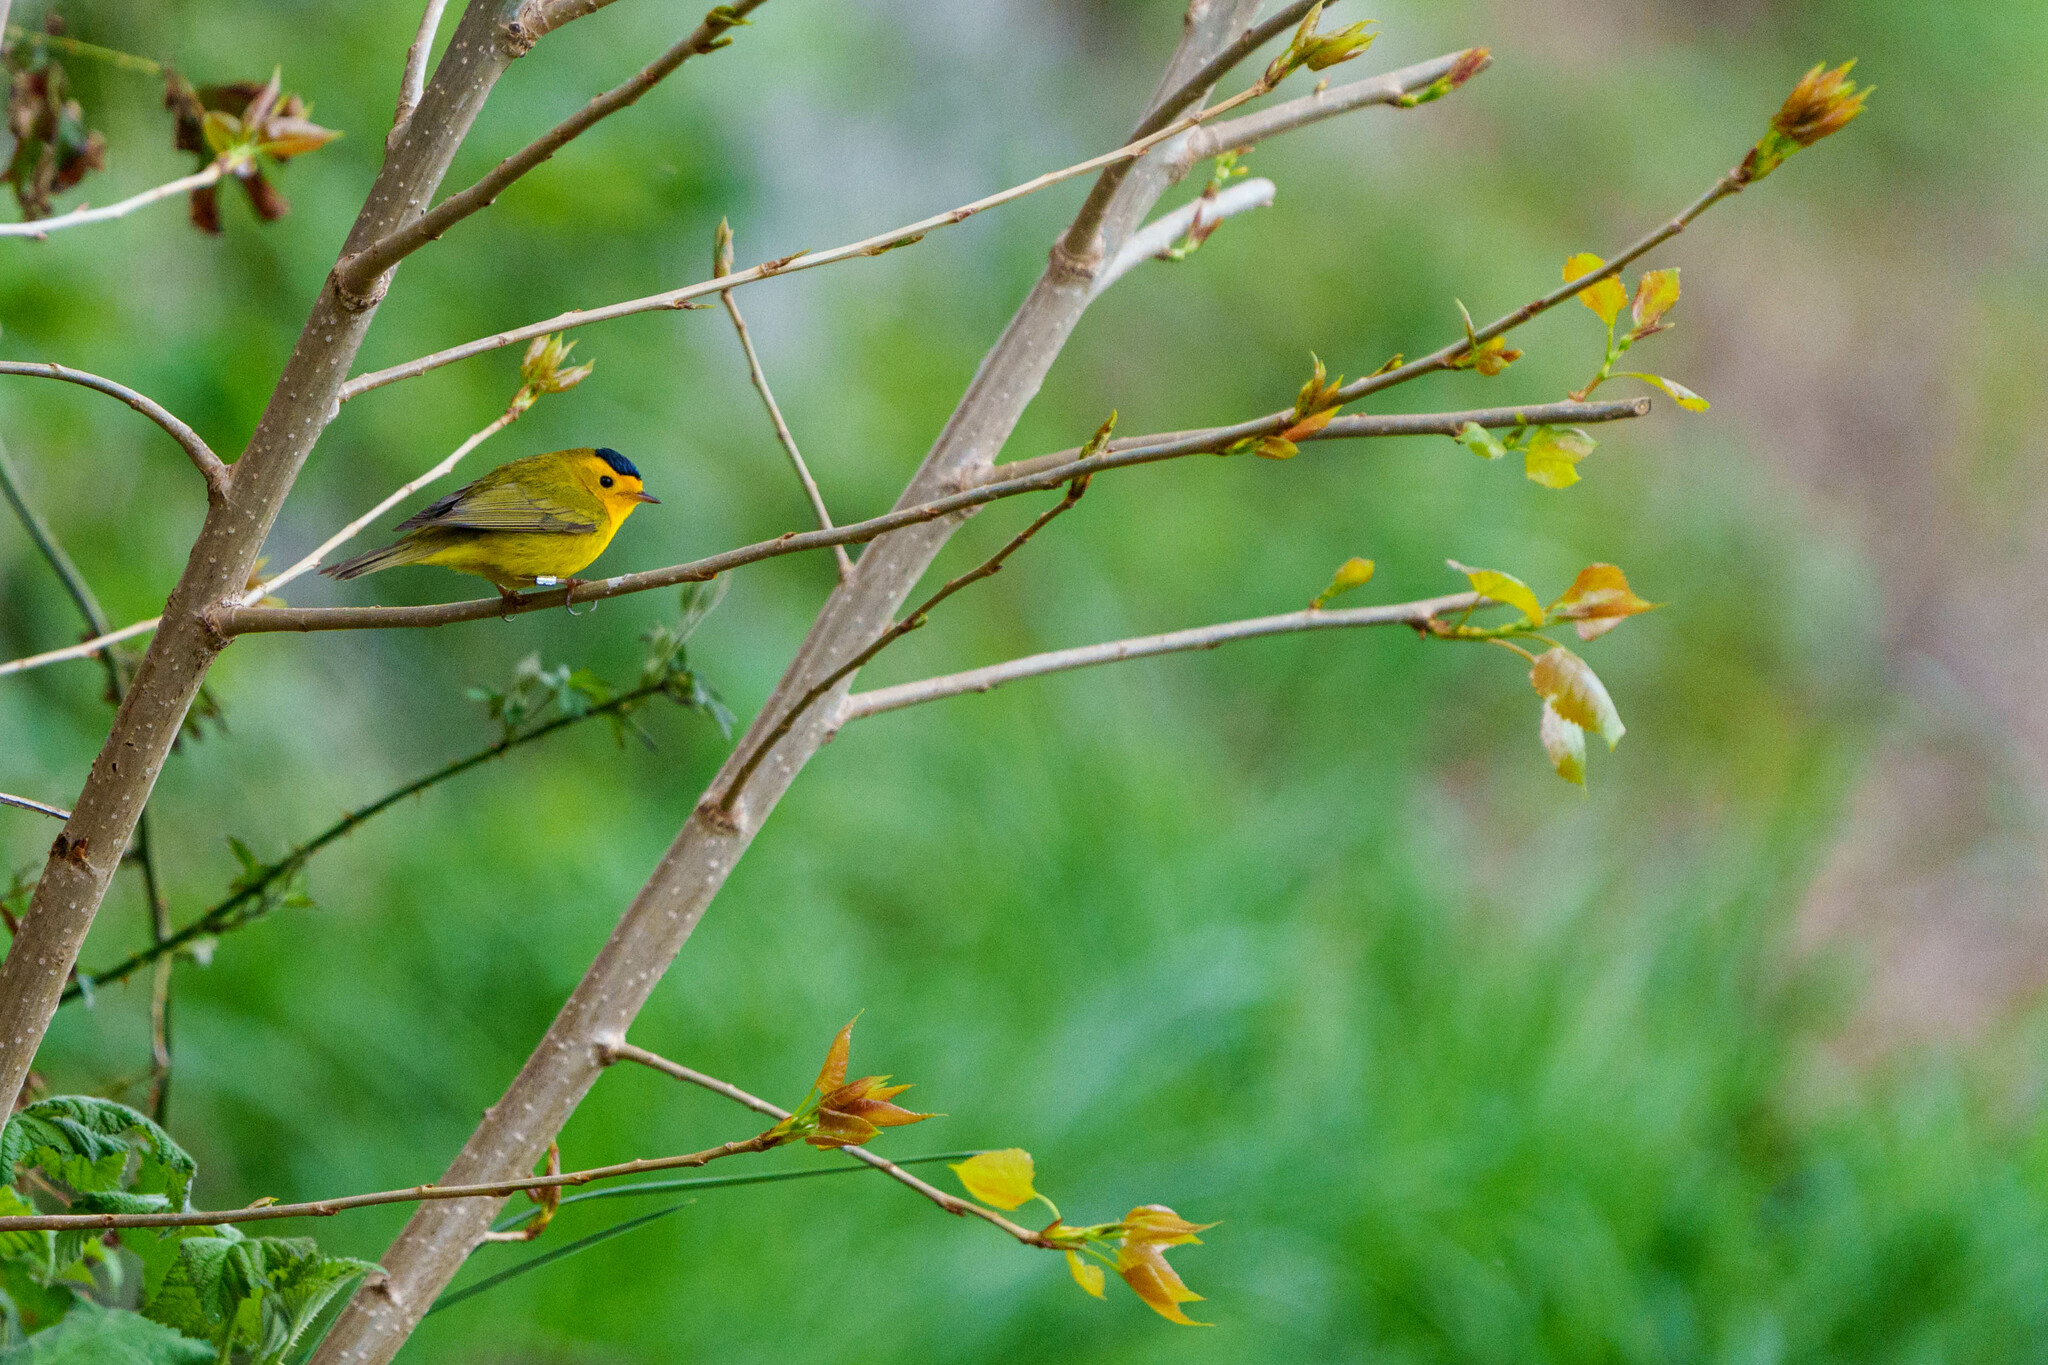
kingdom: Animalia
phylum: Chordata
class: Aves
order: Passeriformes
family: Parulidae
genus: Cardellina
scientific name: Cardellina pusilla
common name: Wilson's warbler
